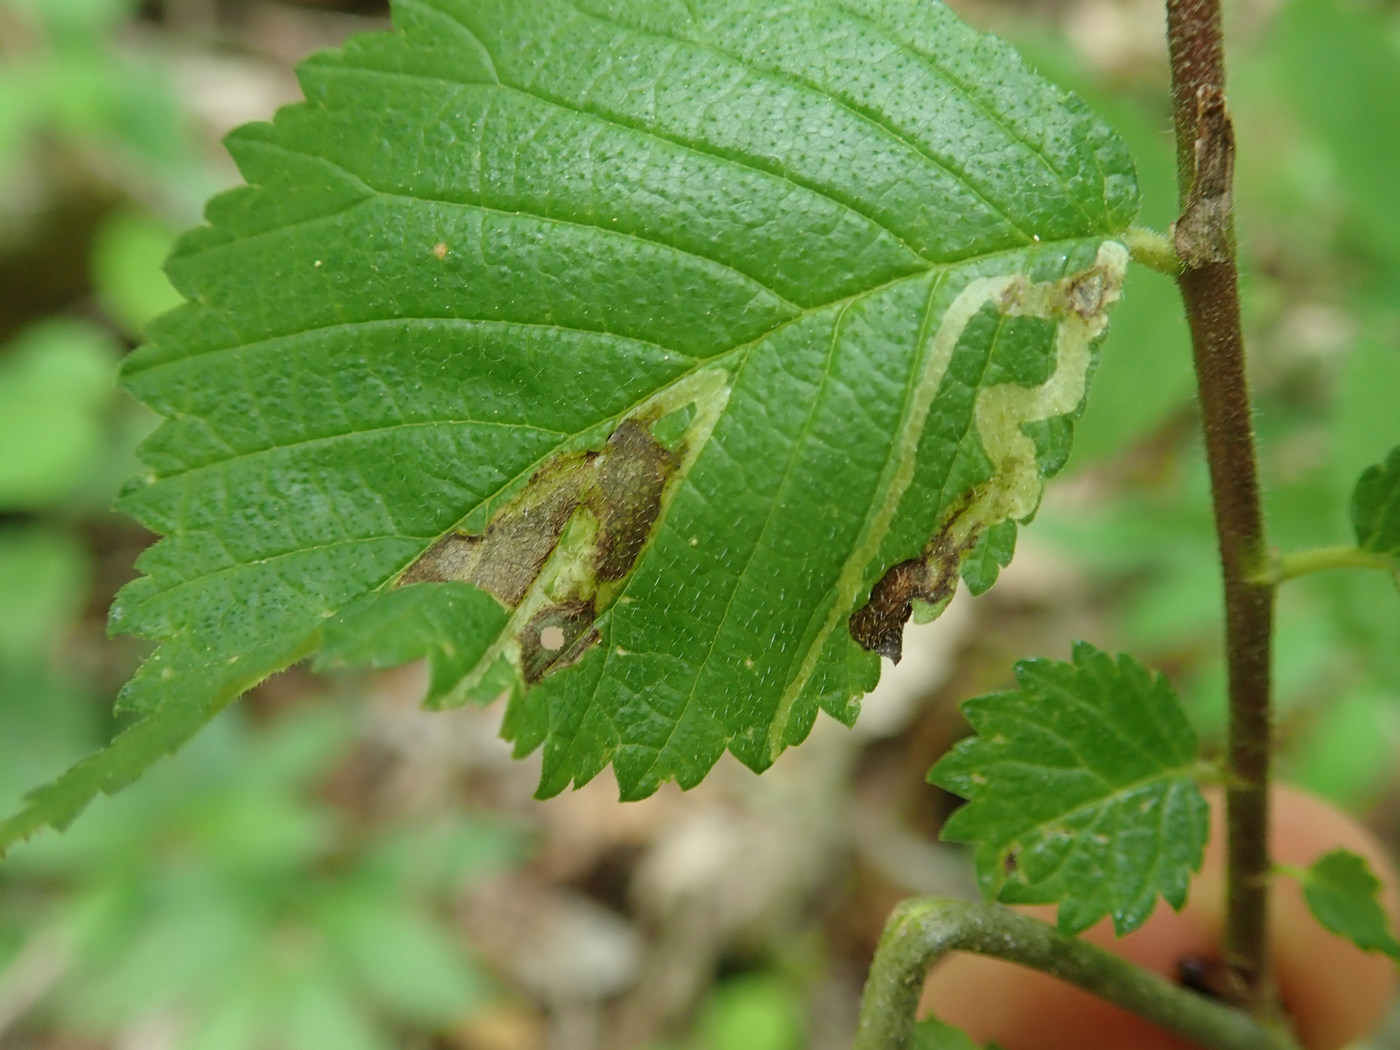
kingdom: Animalia
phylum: Arthropoda
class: Insecta
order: Diptera
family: Agromyzidae
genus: Agromyza
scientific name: Agromyza aristata
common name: Elm agromyzid leafminer
